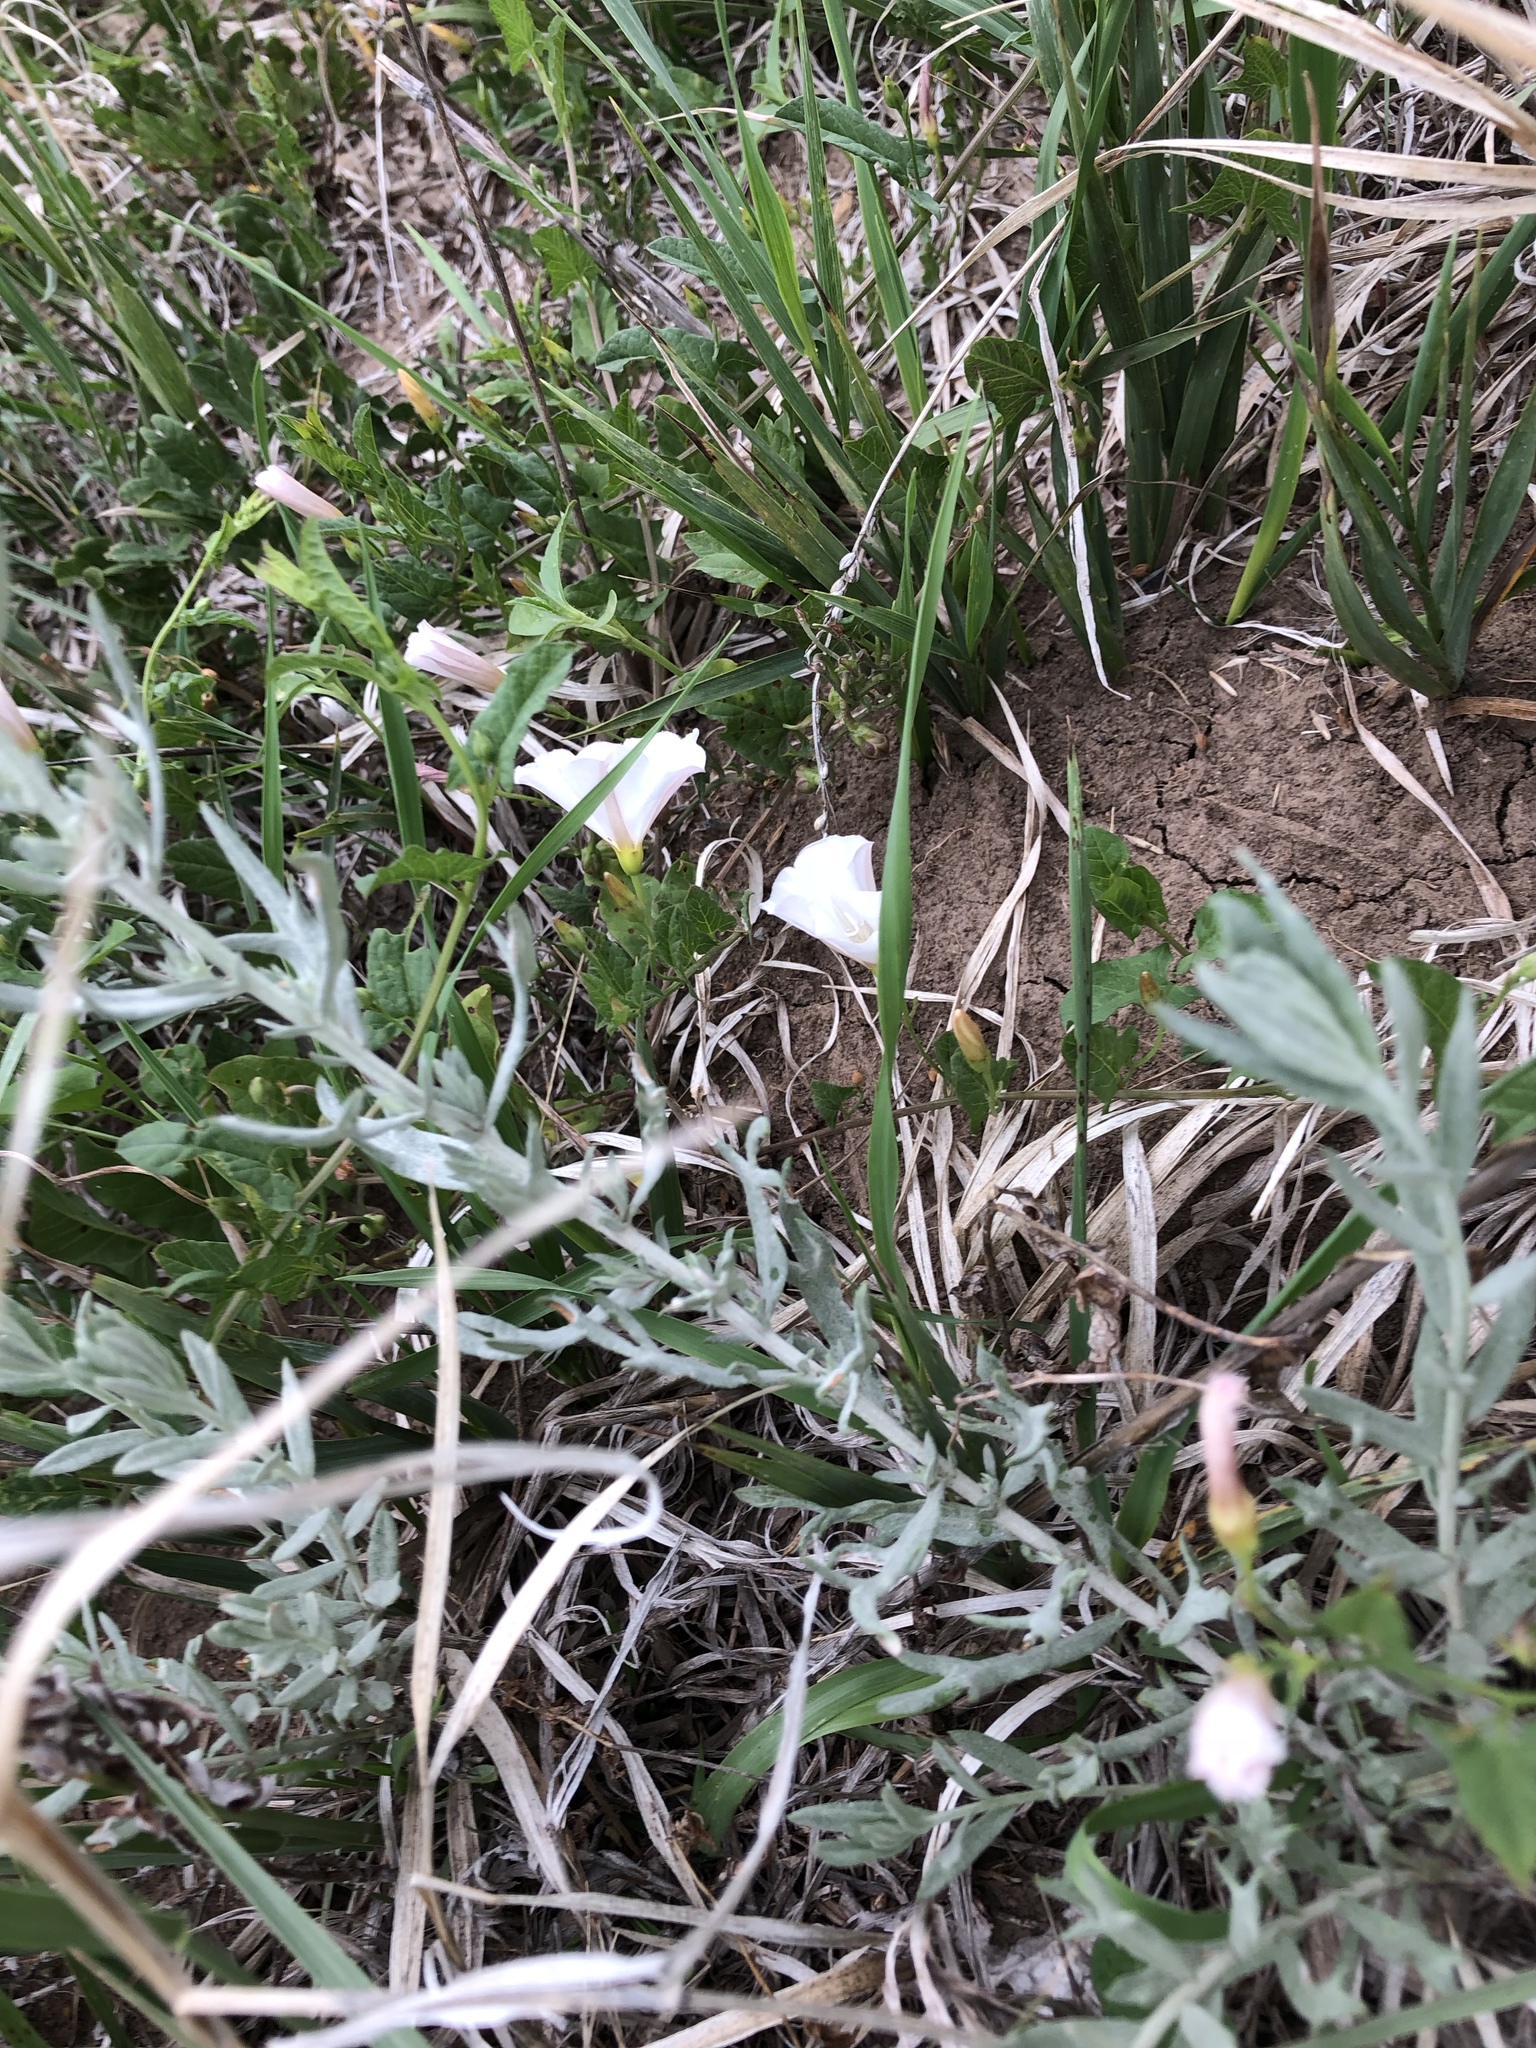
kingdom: Plantae
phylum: Tracheophyta
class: Magnoliopsida
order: Solanales
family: Convolvulaceae
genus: Convolvulus
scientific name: Convolvulus arvensis
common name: Field bindweed
